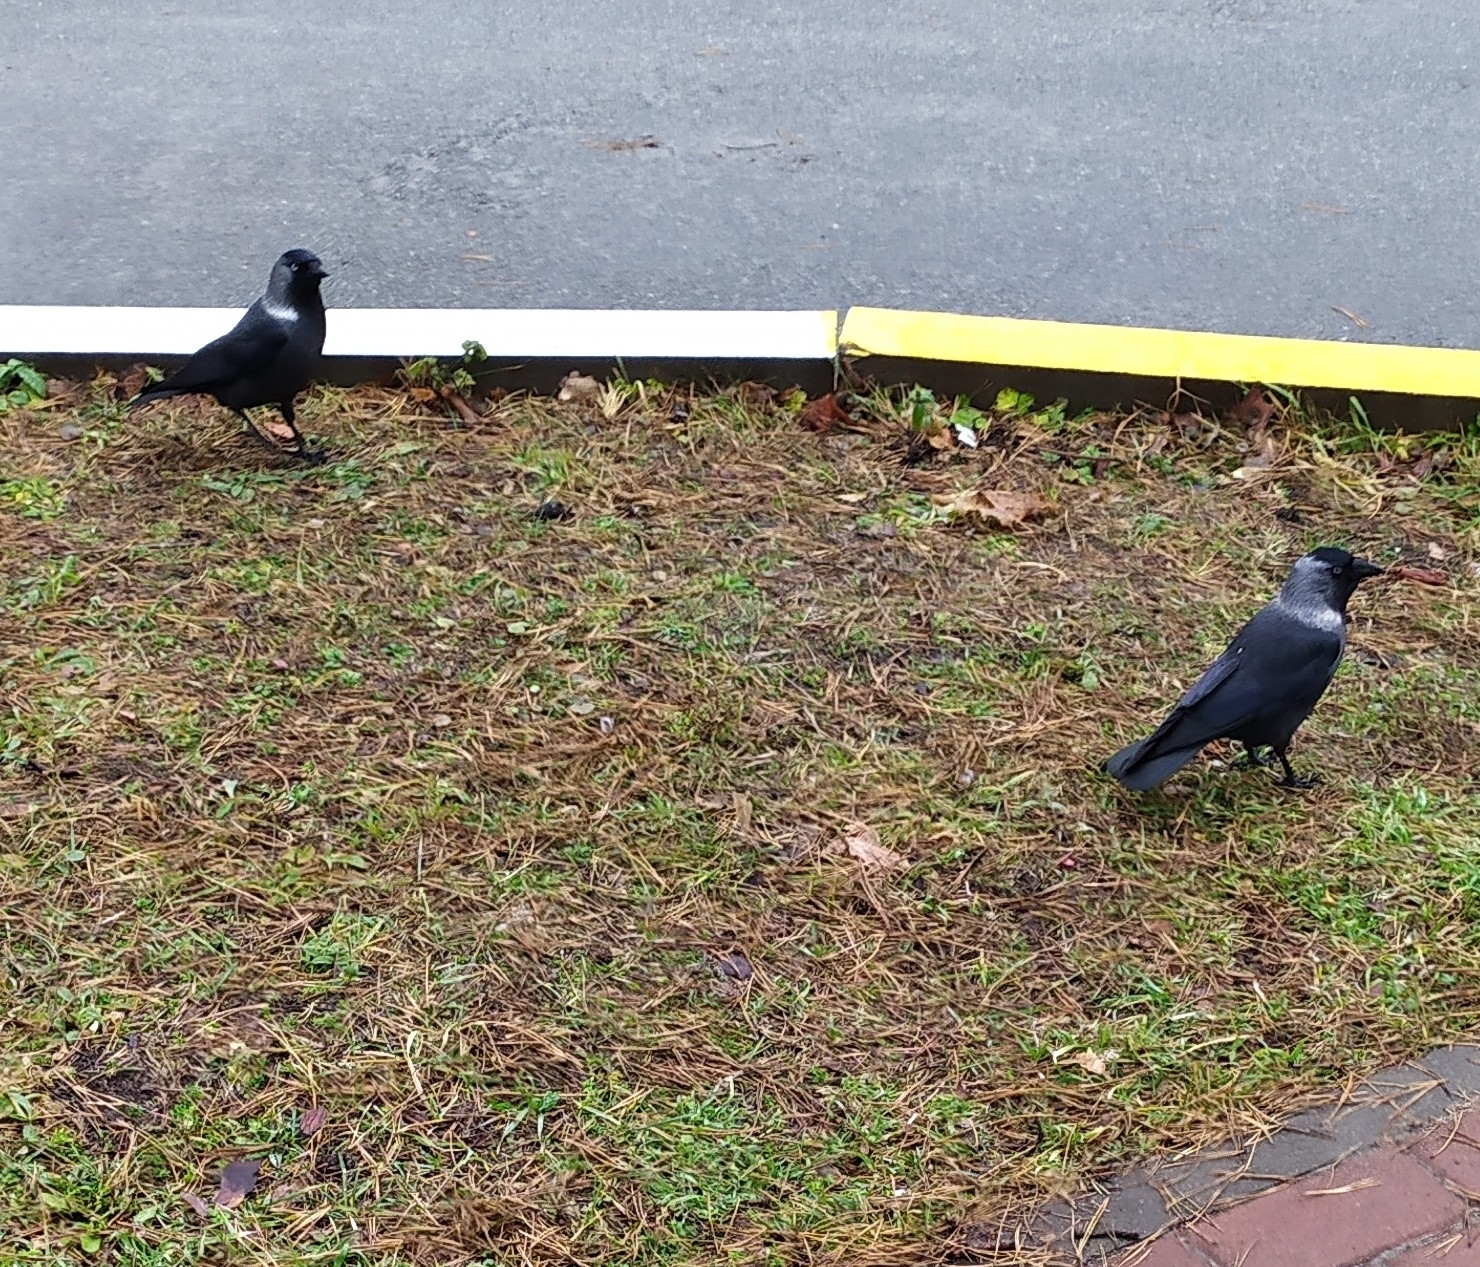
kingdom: Animalia
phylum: Chordata
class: Aves
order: Passeriformes
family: Corvidae
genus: Coloeus
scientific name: Coloeus monedula
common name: Western jackdaw
